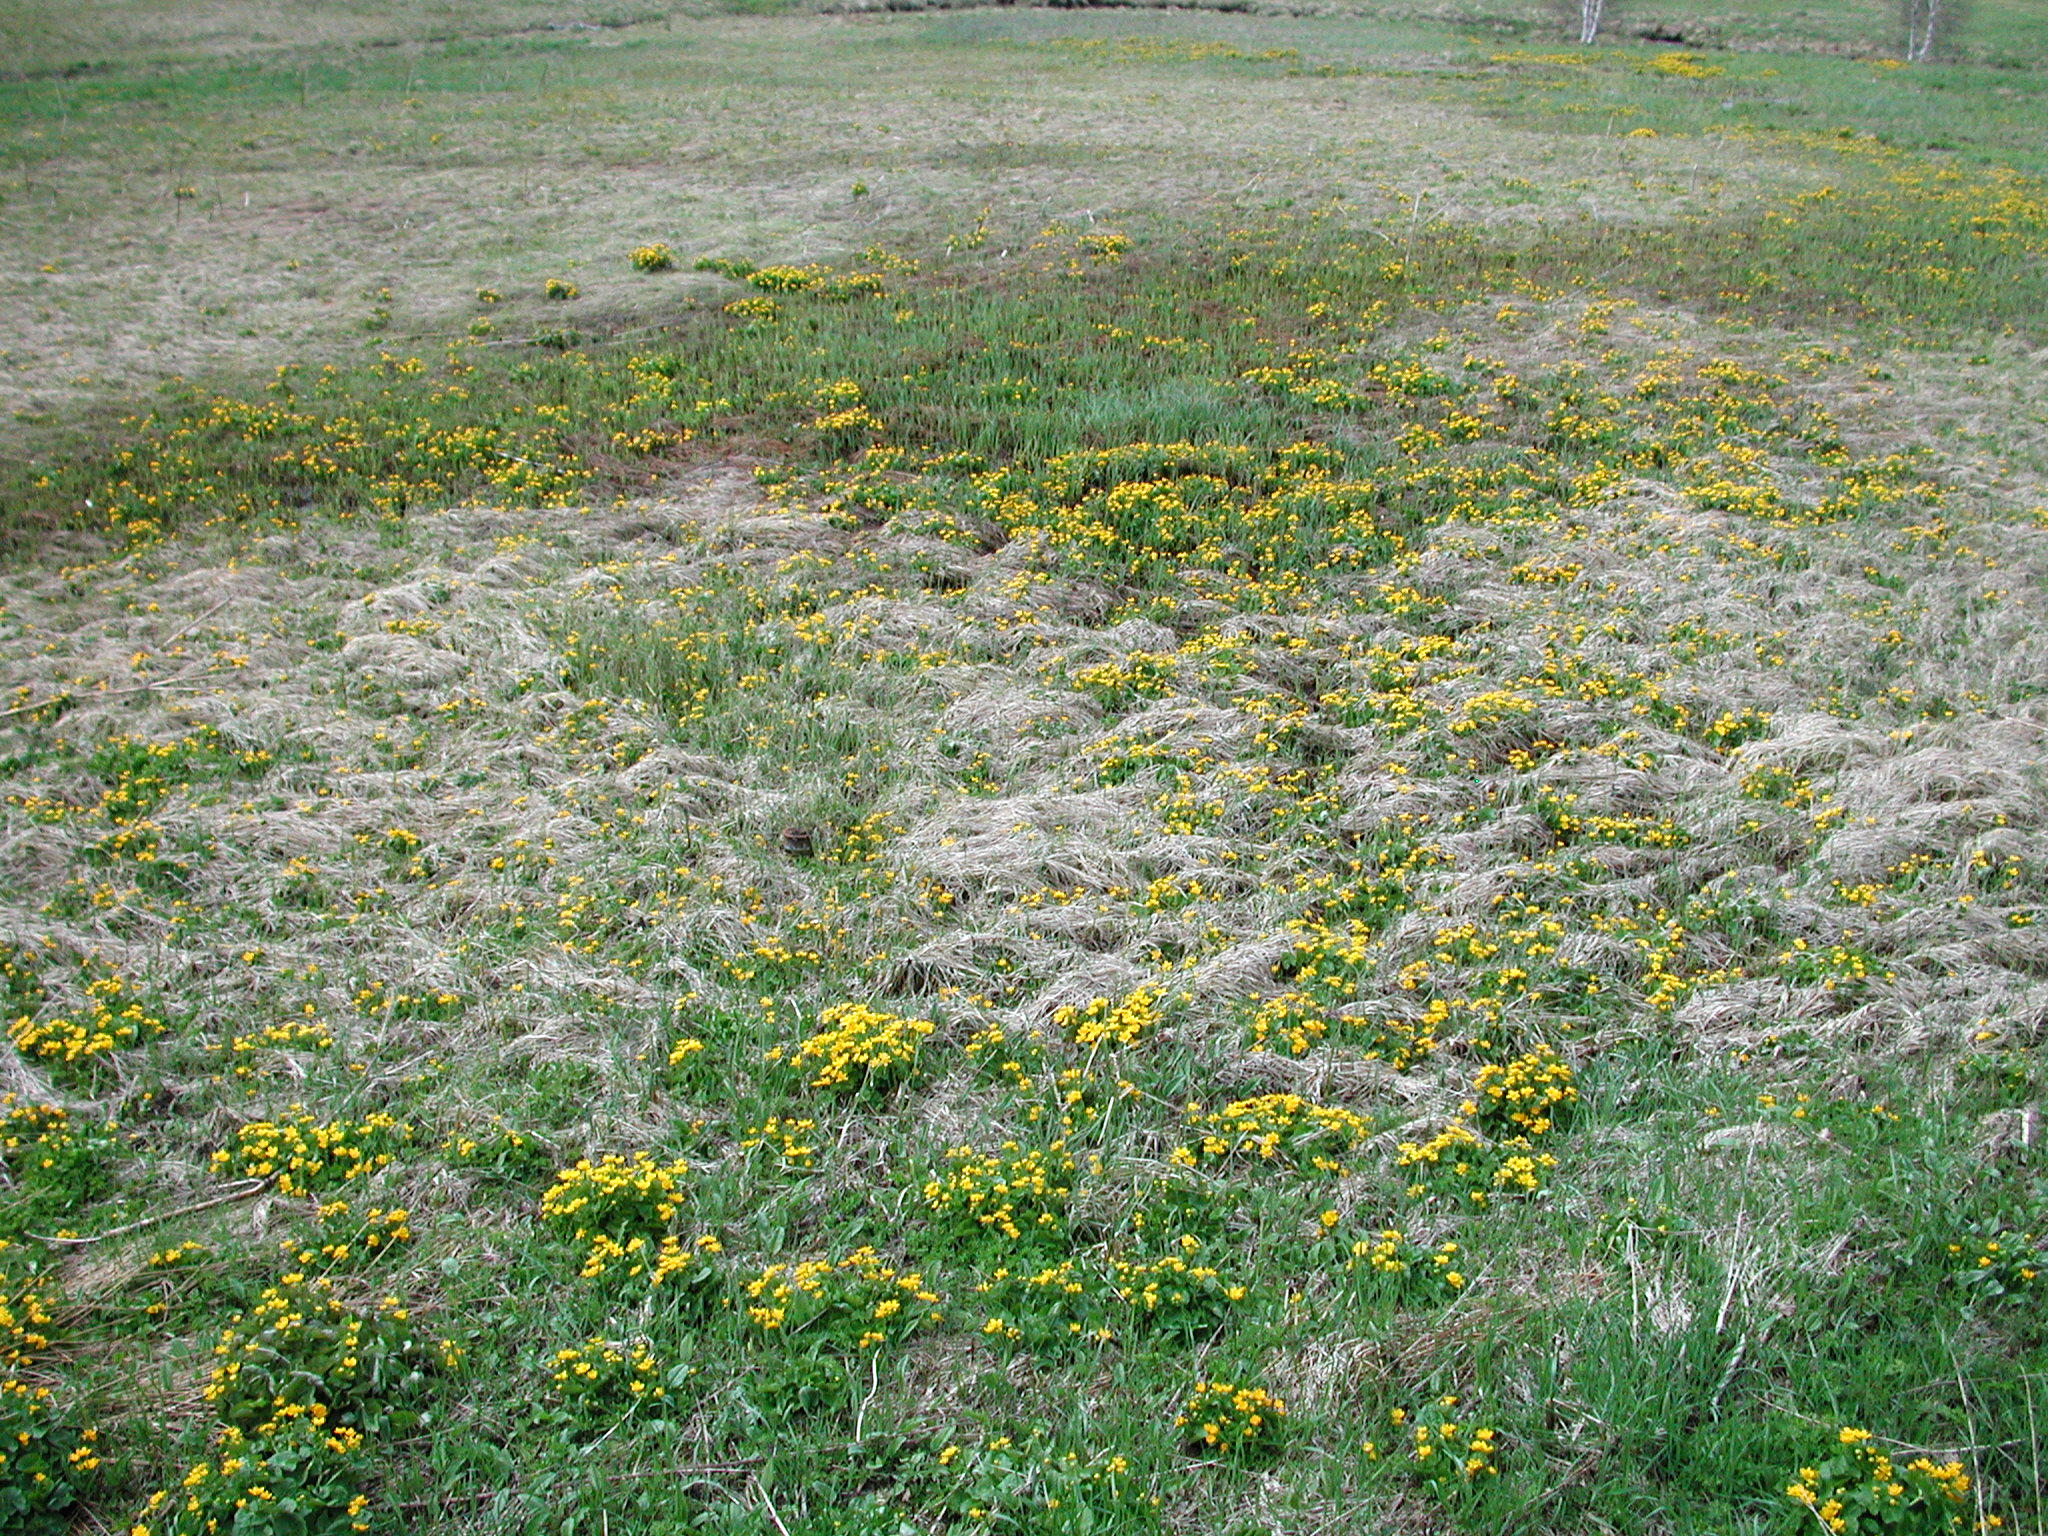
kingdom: Plantae
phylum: Tracheophyta
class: Magnoliopsida
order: Ranunculales
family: Ranunculaceae
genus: Caltha
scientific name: Caltha palustris
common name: Marsh marigold
